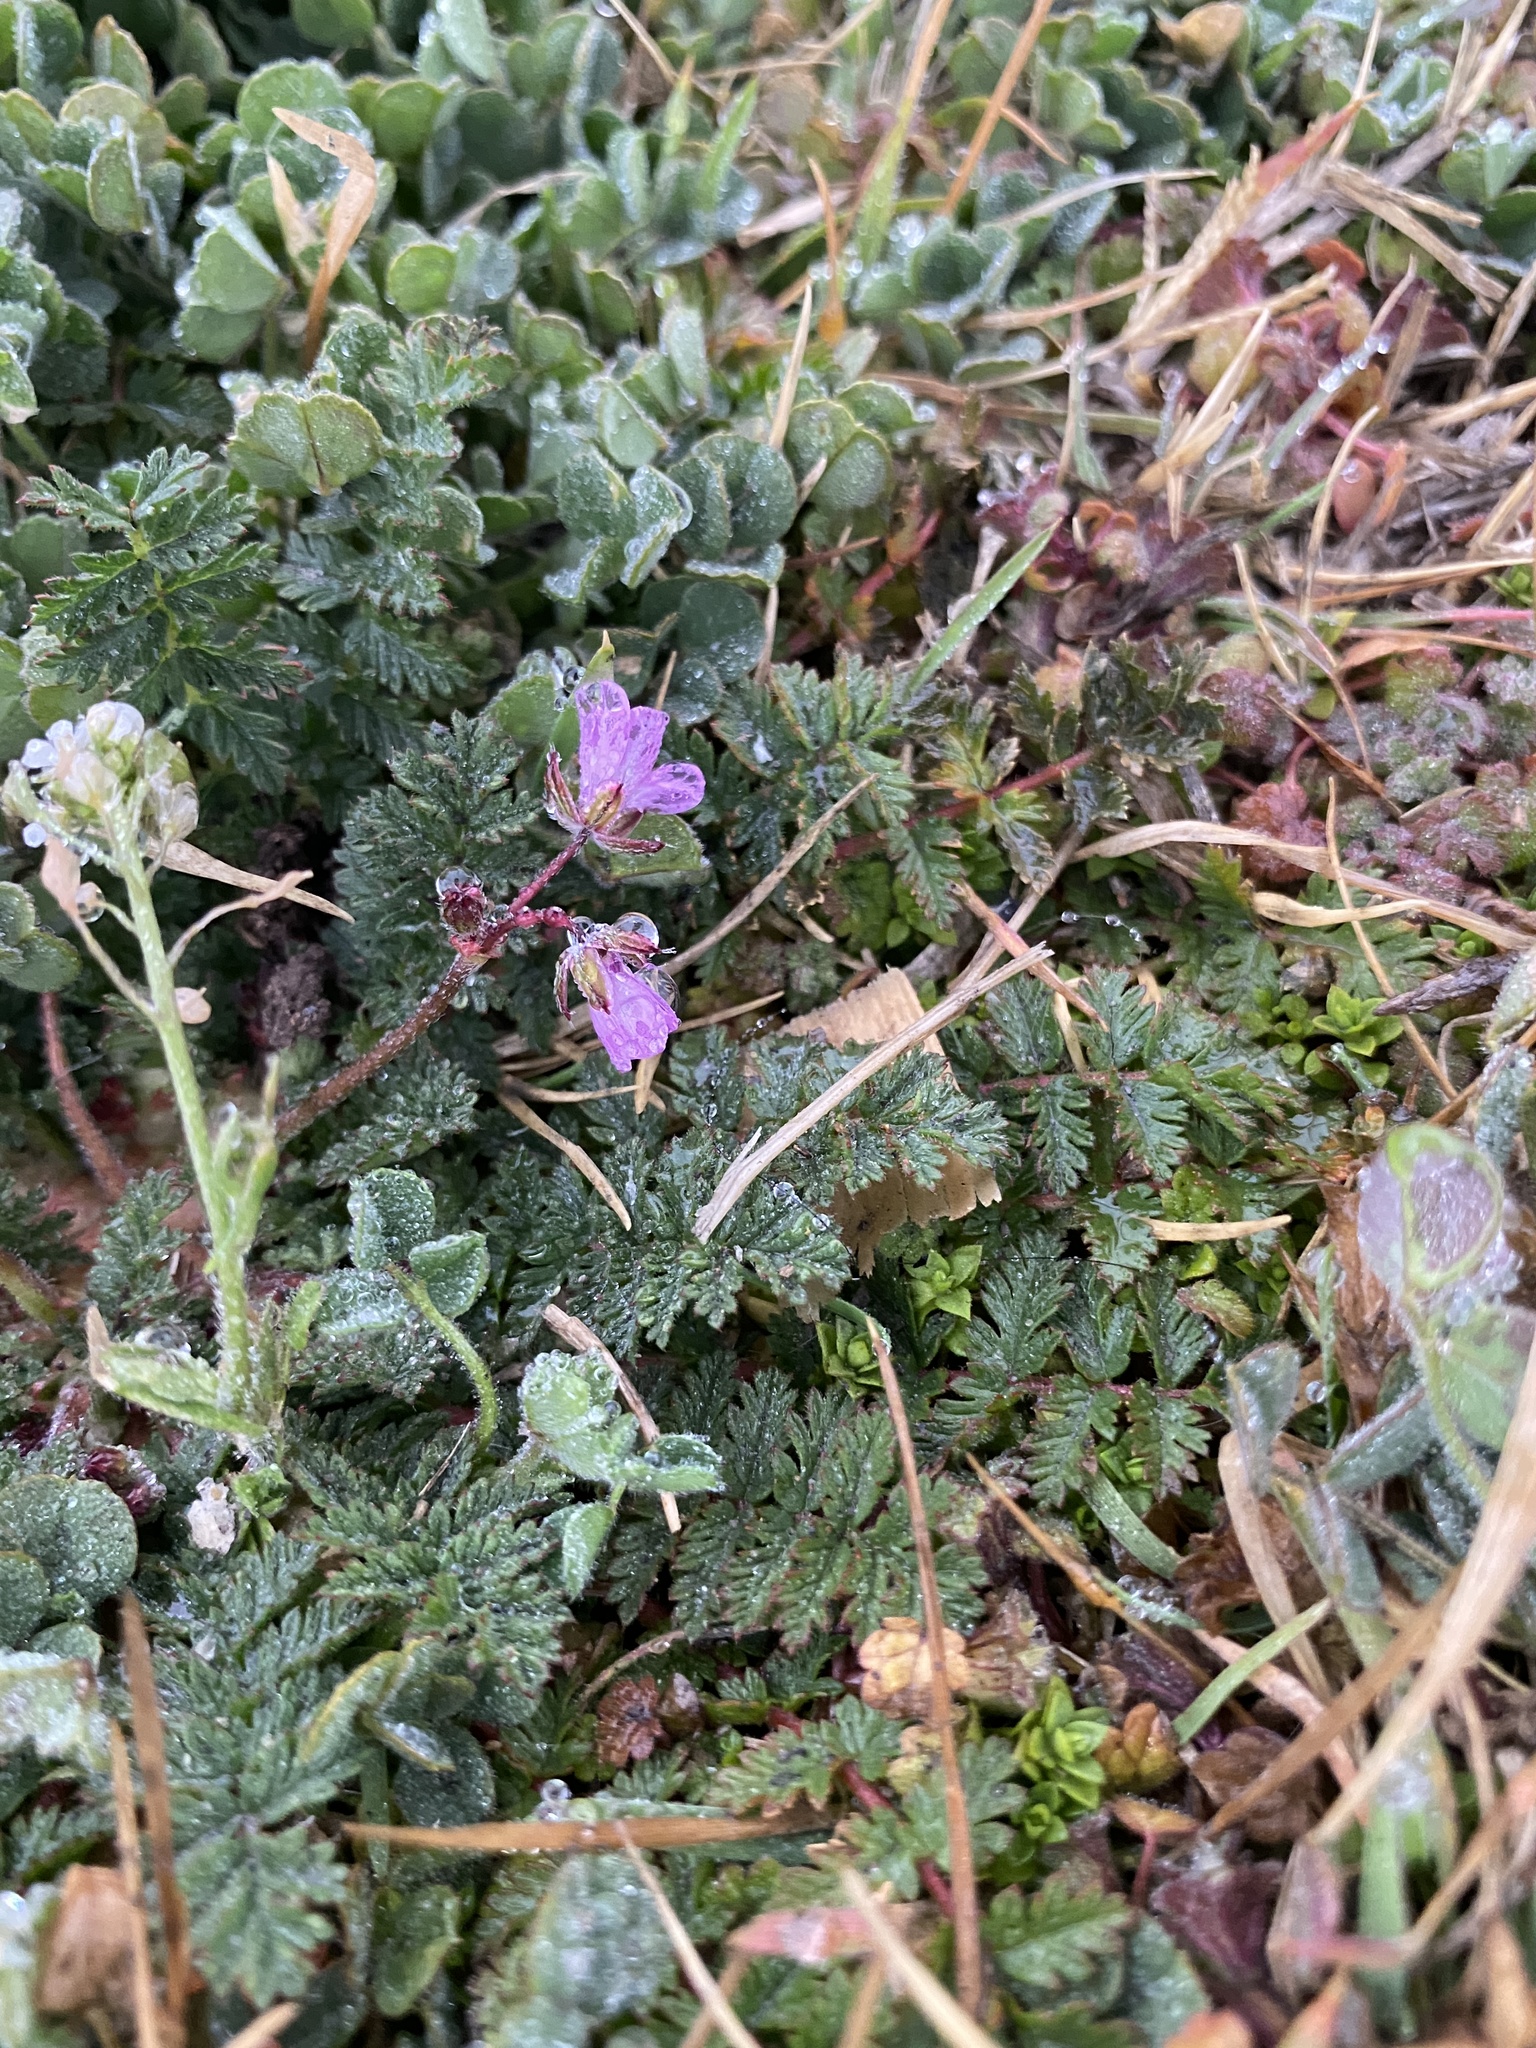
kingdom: Plantae
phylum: Tracheophyta
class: Magnoliopsida
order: Geraniales
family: Geraniaceae
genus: Erodium
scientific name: Erodium cicutarium
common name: Common stork's-bill
